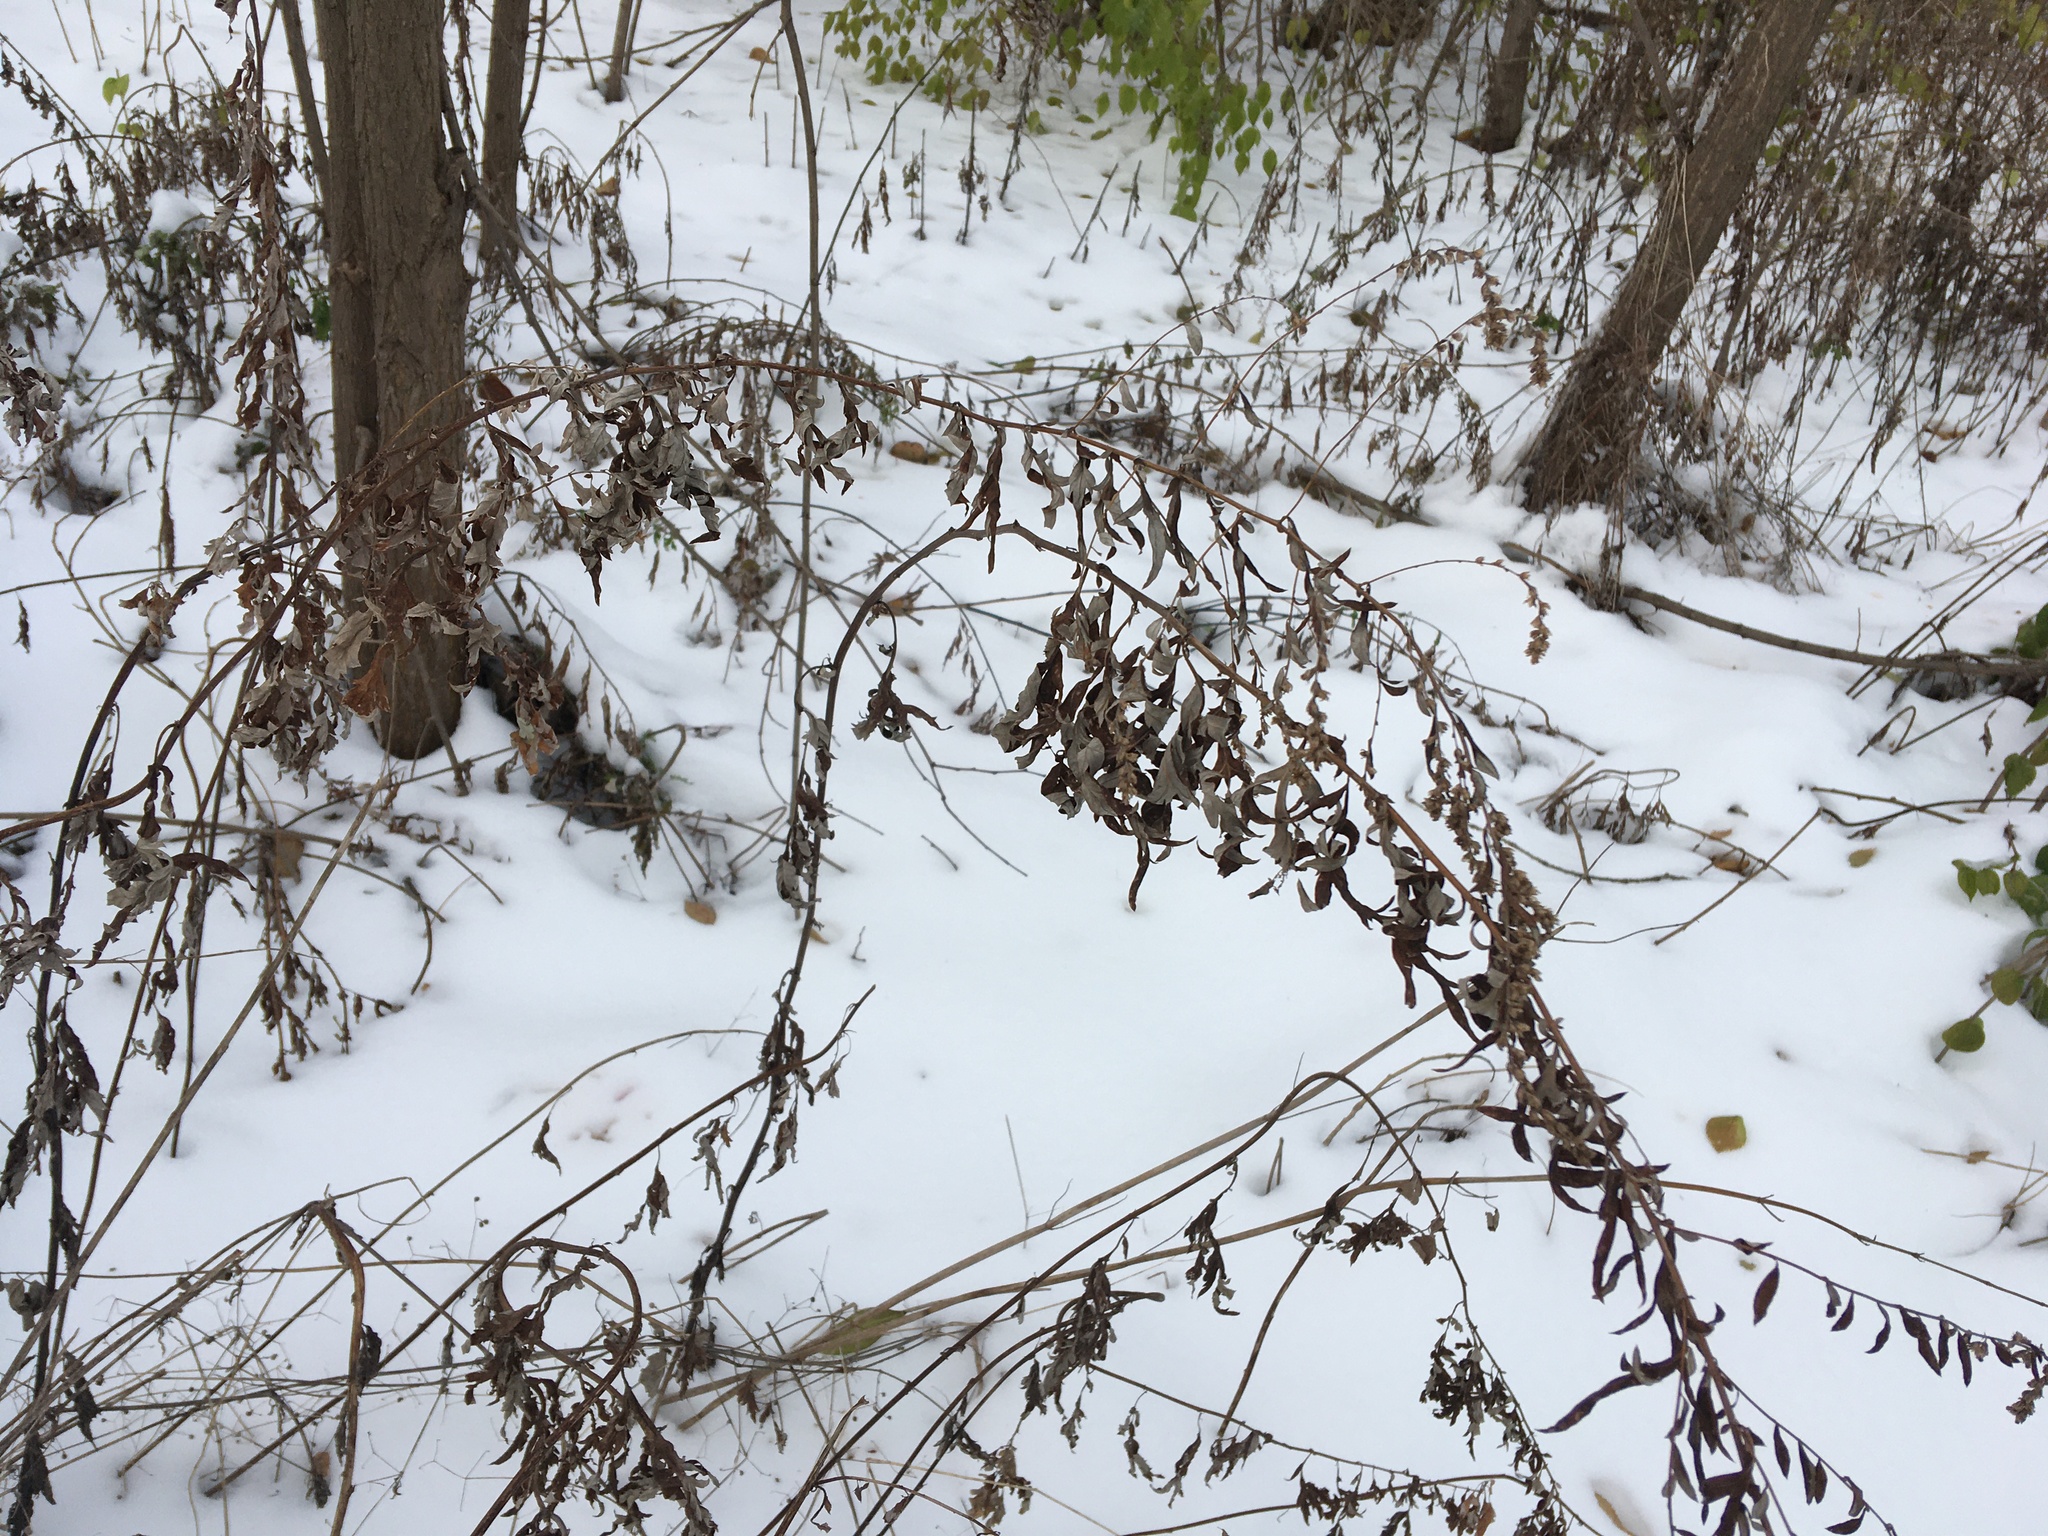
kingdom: Plantae
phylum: Tracheophyta
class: Magnoliopsida
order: Asterales
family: Asteraceae
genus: Artemisia
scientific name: Artemisia vulgaris
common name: Mugwort
